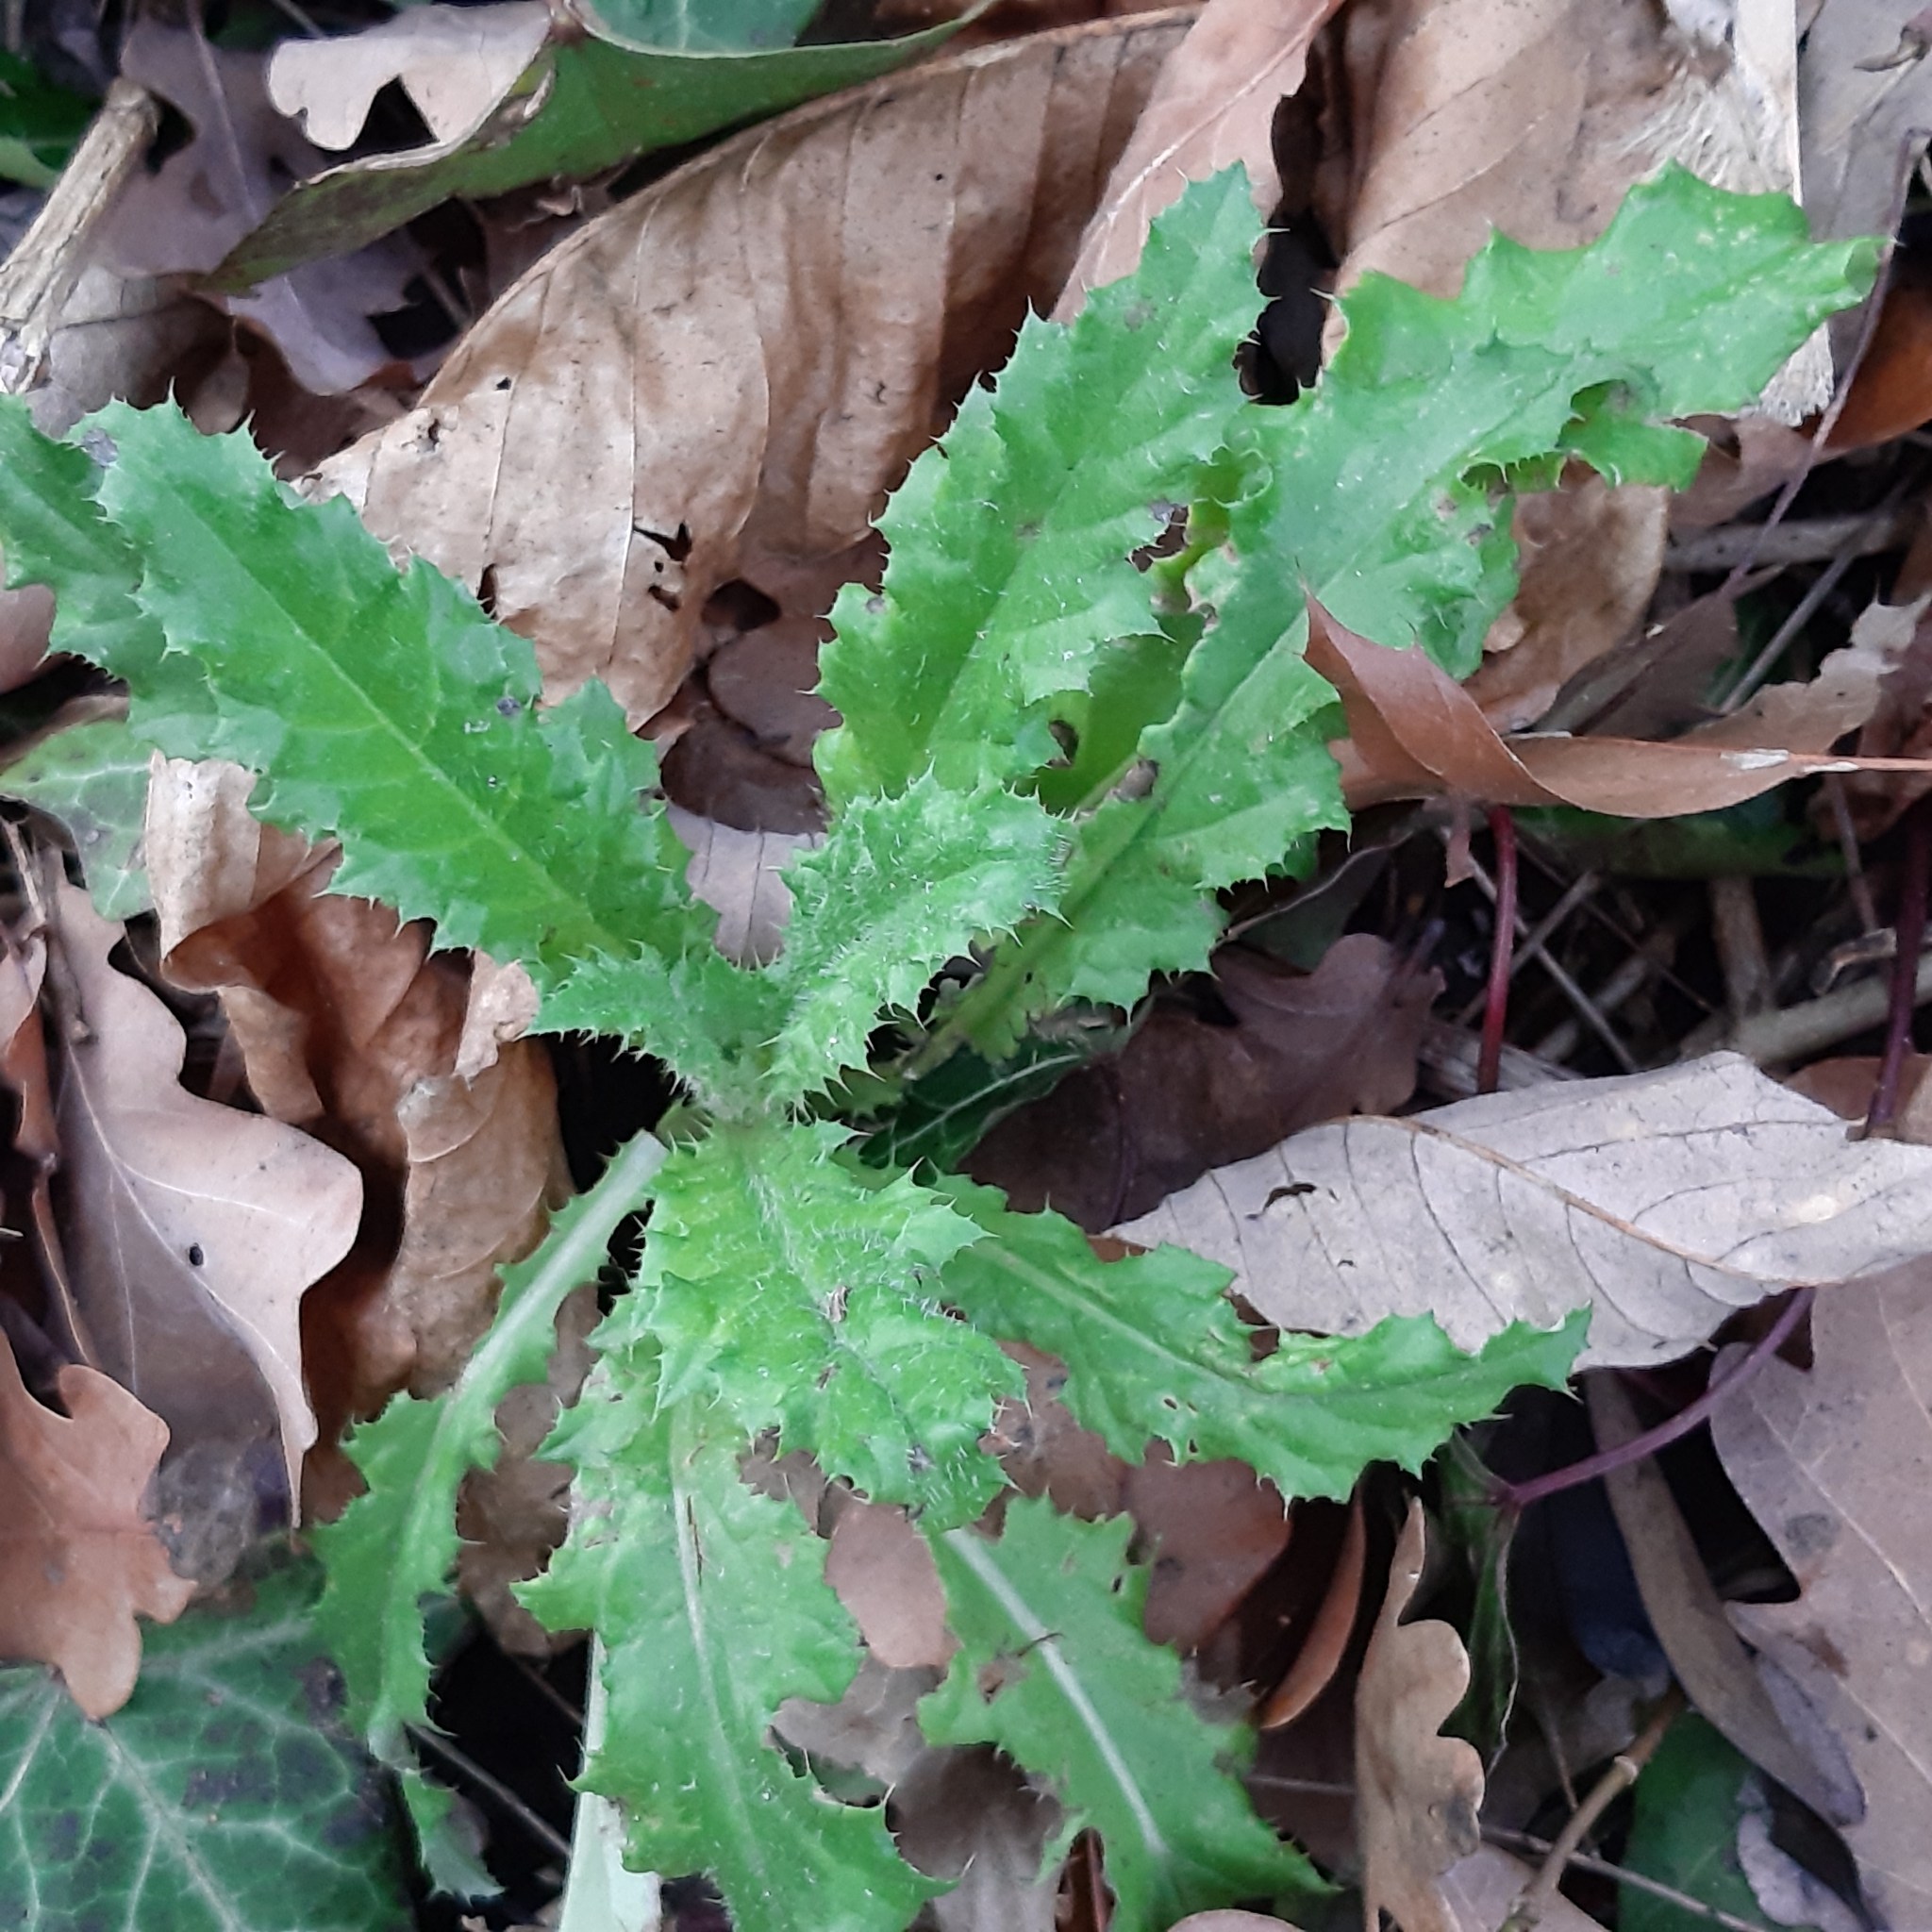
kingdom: Plantae
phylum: Tracheophyta
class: Magnoliopsida
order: Asterales
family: Asteraceae
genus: Cirsium
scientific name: Cirsium arvense
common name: Creeping thistle
